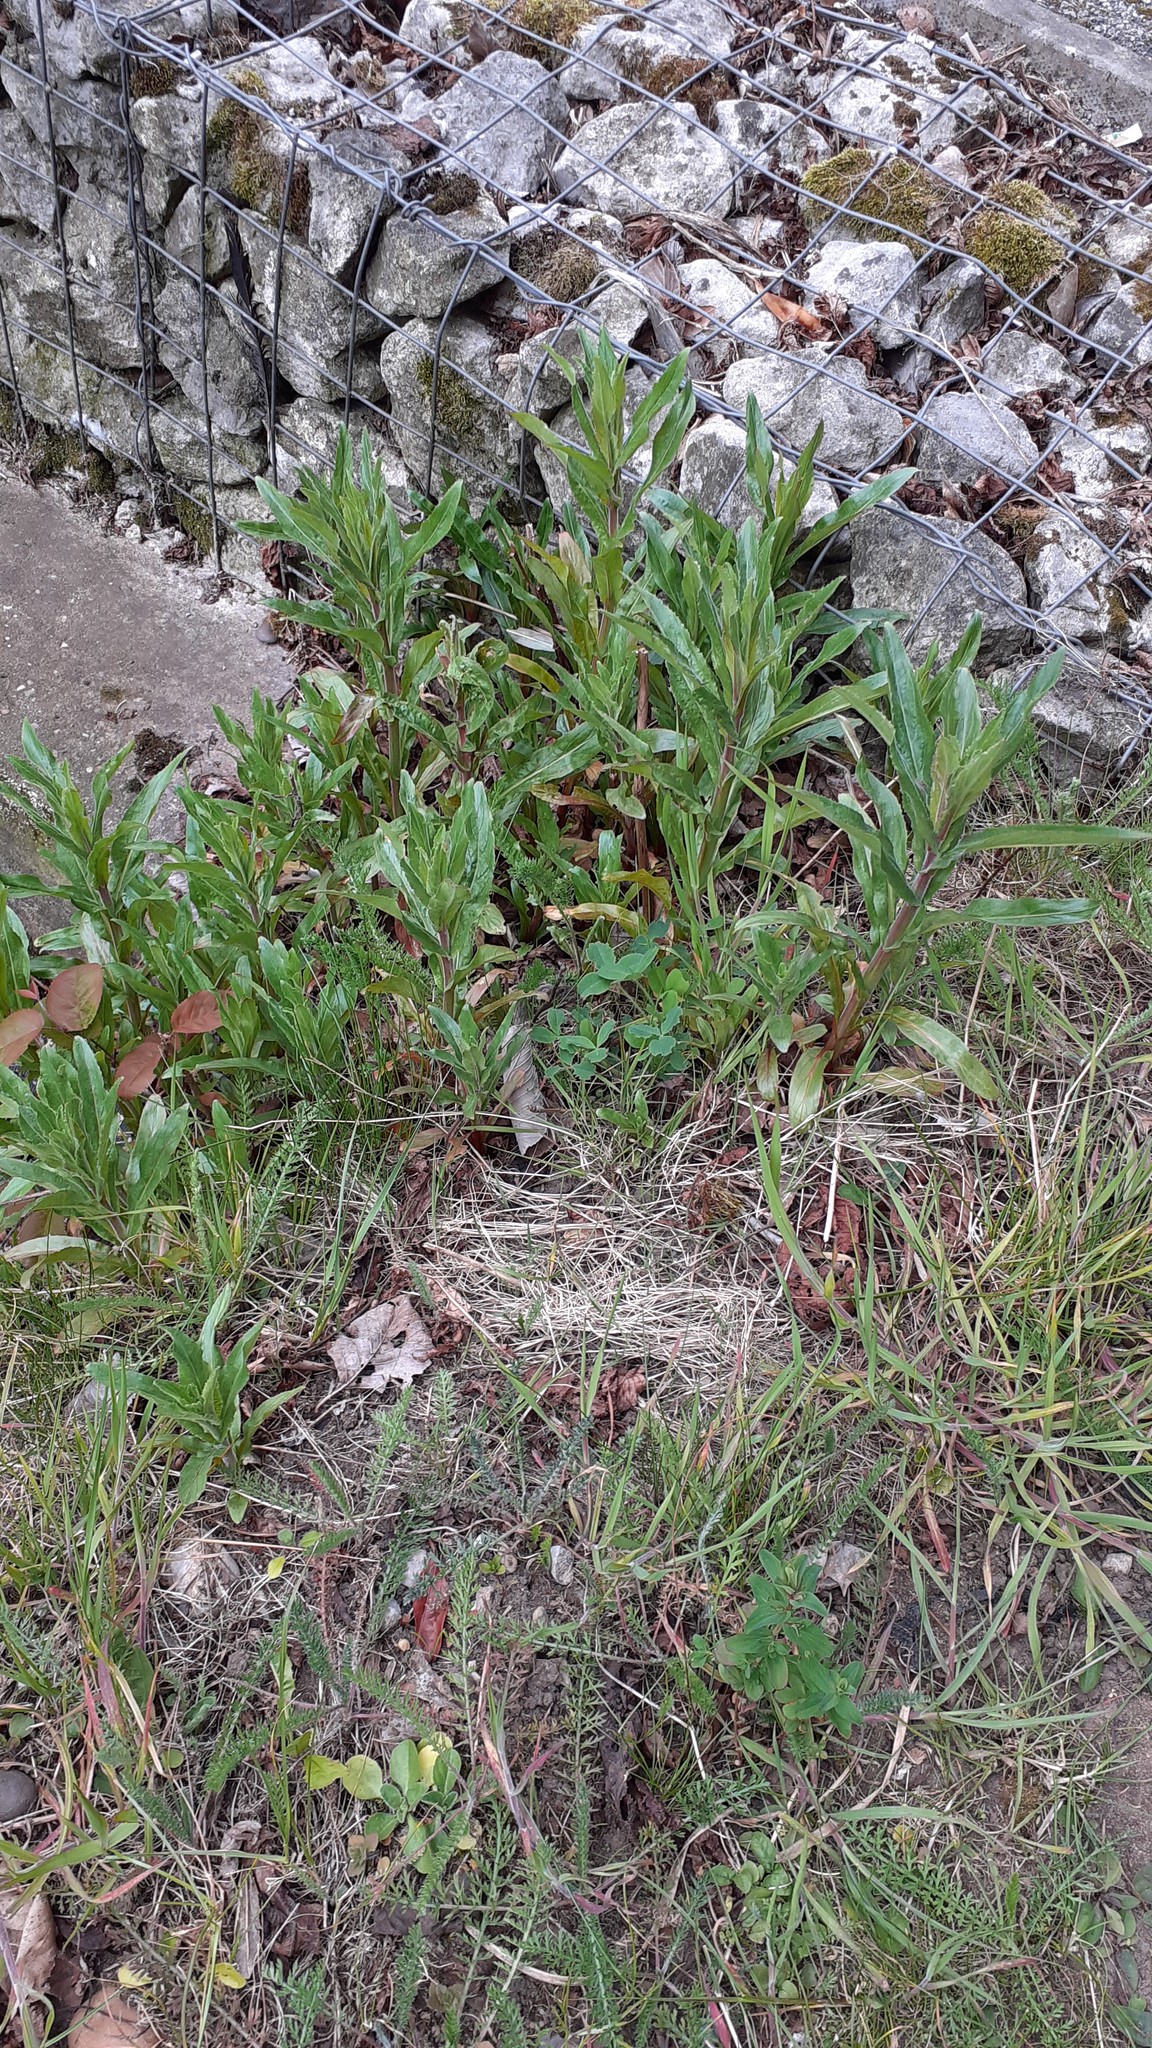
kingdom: Plantae
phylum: Tracheophyta
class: Magnoliopsida
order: Myrtales
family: Onagraceae
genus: Epilobium
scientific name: Epilobium hirsutum
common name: Great willowherb
